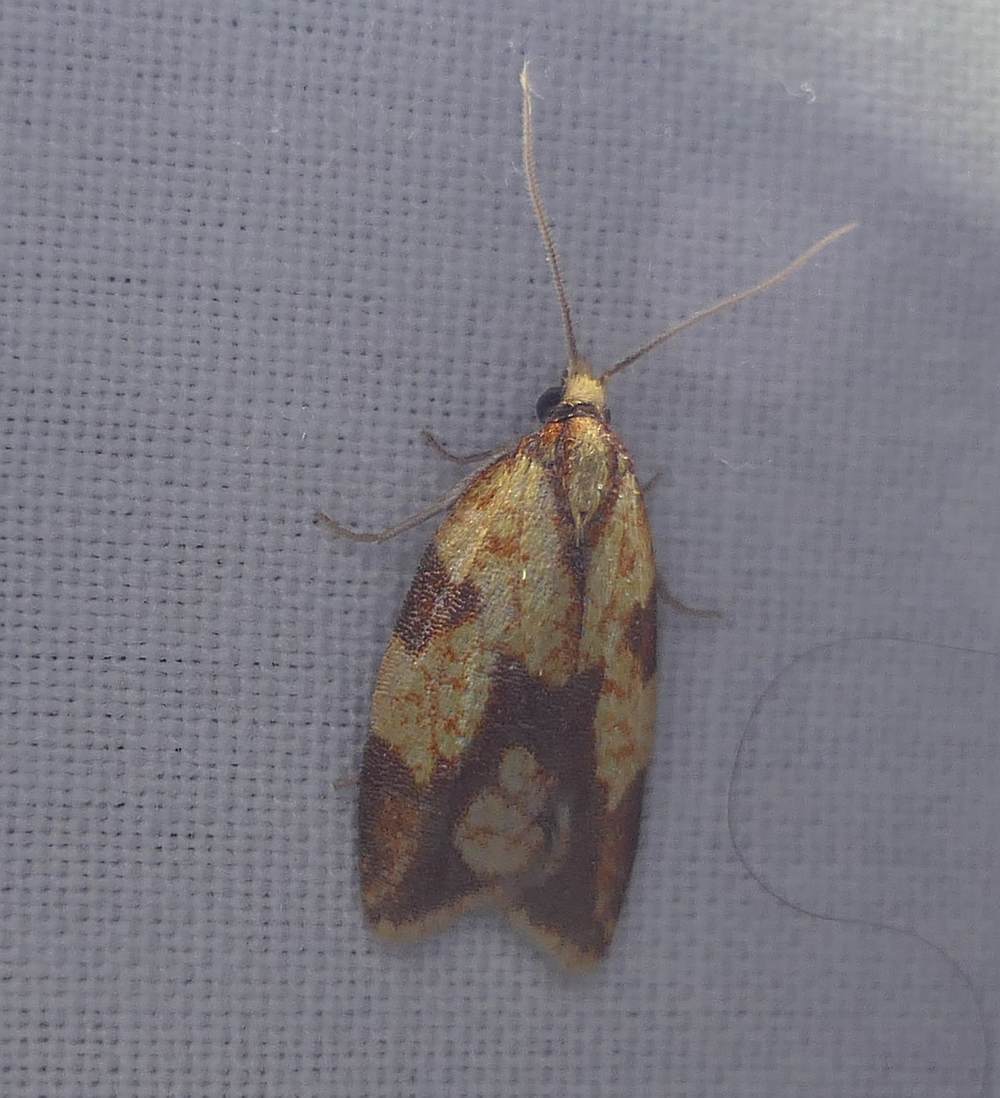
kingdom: Animalia
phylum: Arthropoda
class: Insecta
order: Lepidoptera
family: Tortricidae
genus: Sparganothis
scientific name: Sparganothis sulfureana
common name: Sparganothis fruitworm moth
